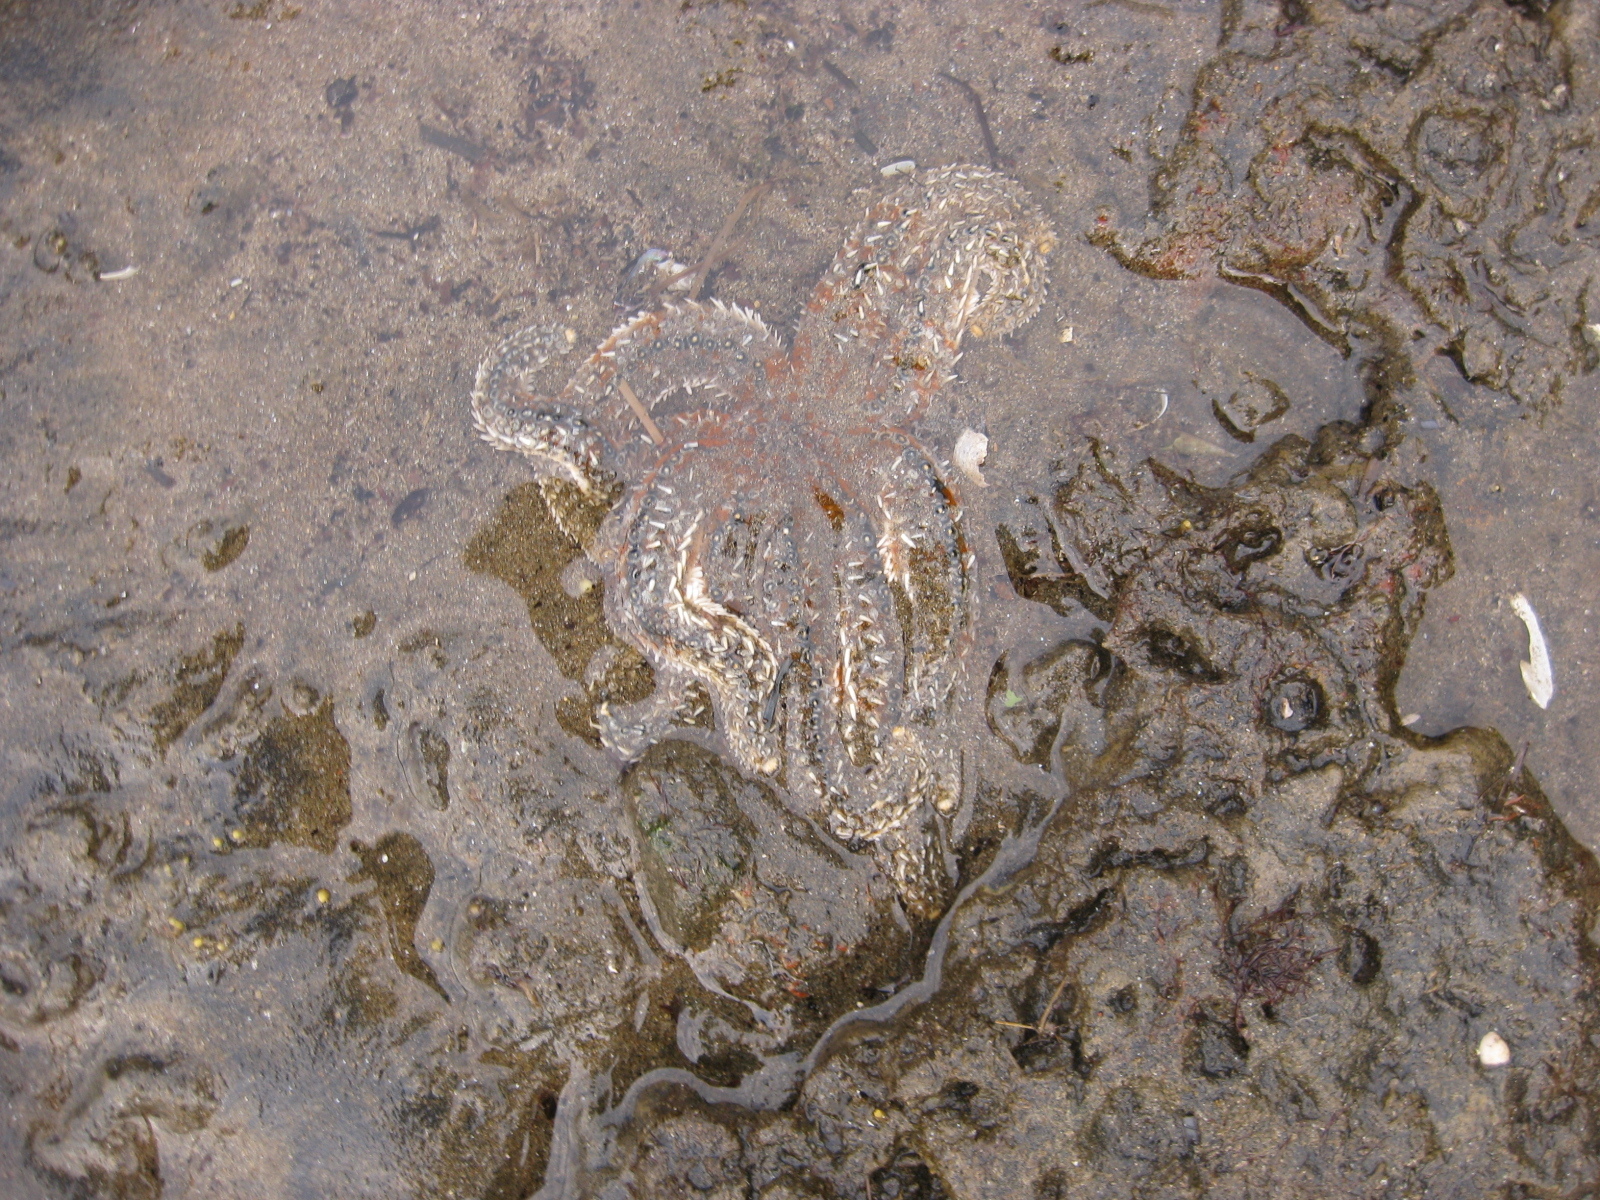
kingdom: Animalia
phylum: Echinodermata
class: Asteroidea
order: Forcipulatida
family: Asteriidae
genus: Coscinasterias
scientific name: Coscinasterias muricata
